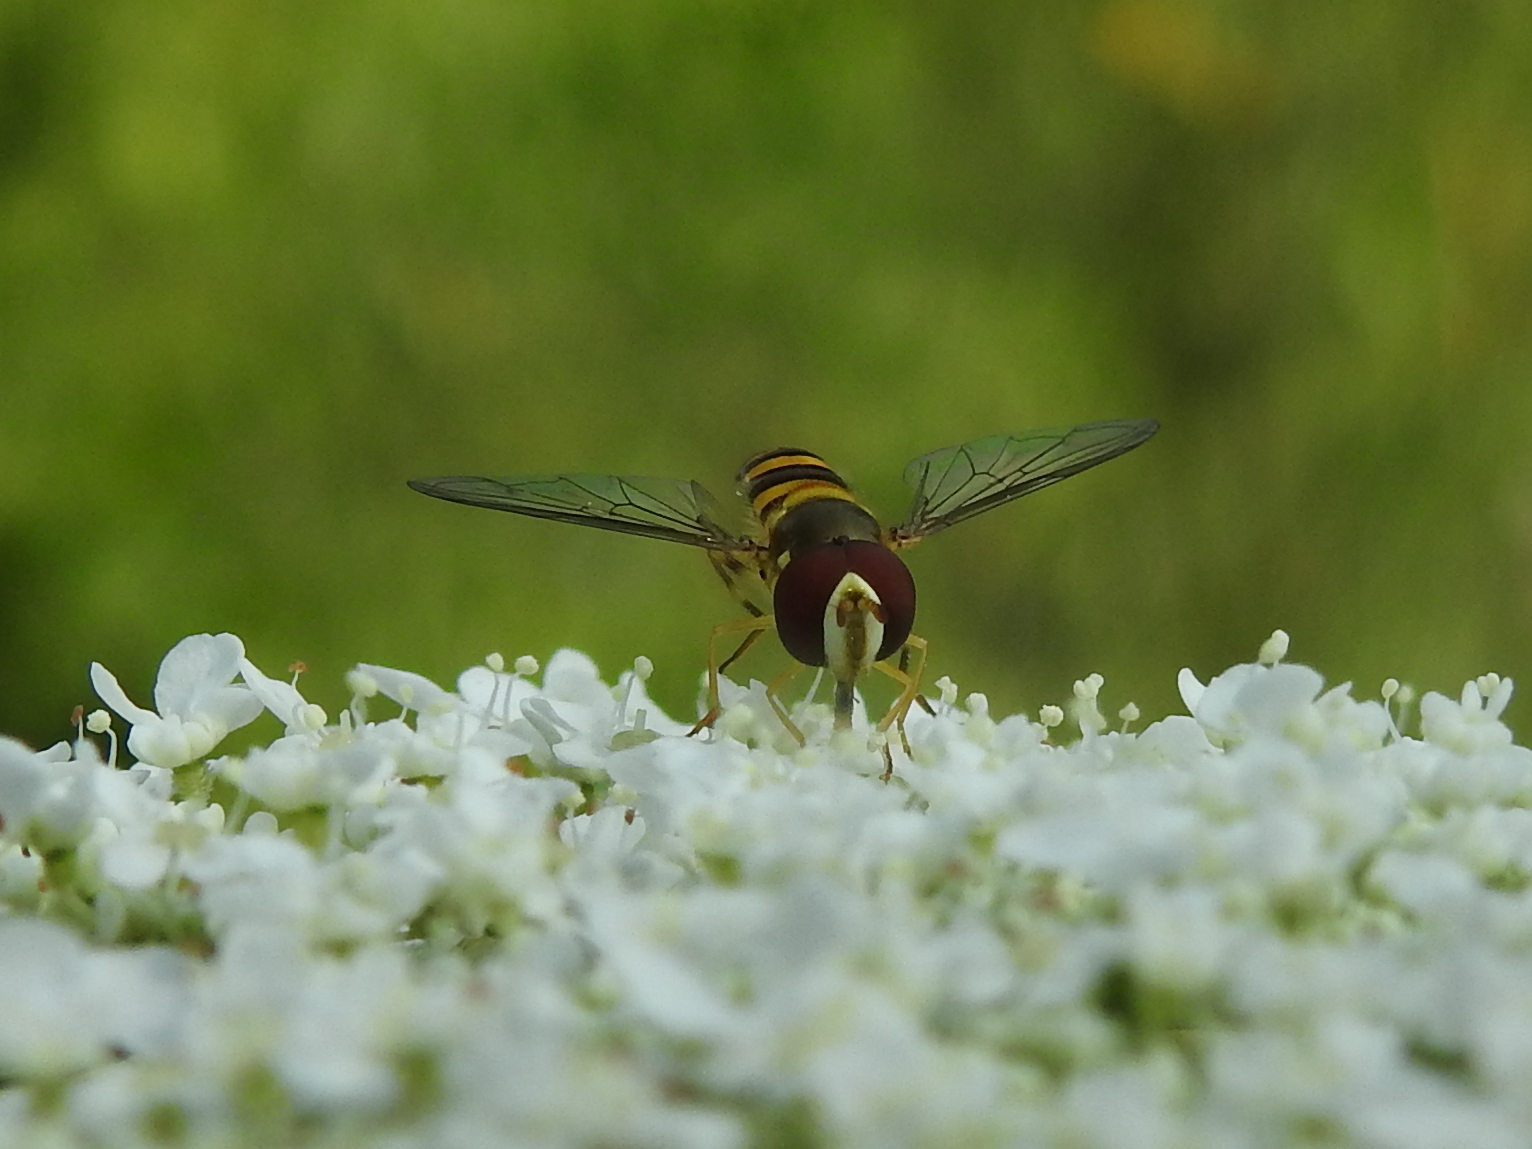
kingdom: Animalia
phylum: Arthropoda
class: Insecta
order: Diptera
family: Syrphidae
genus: Allograpta
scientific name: Allograpta obliqua
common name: Common oblique syrphid
